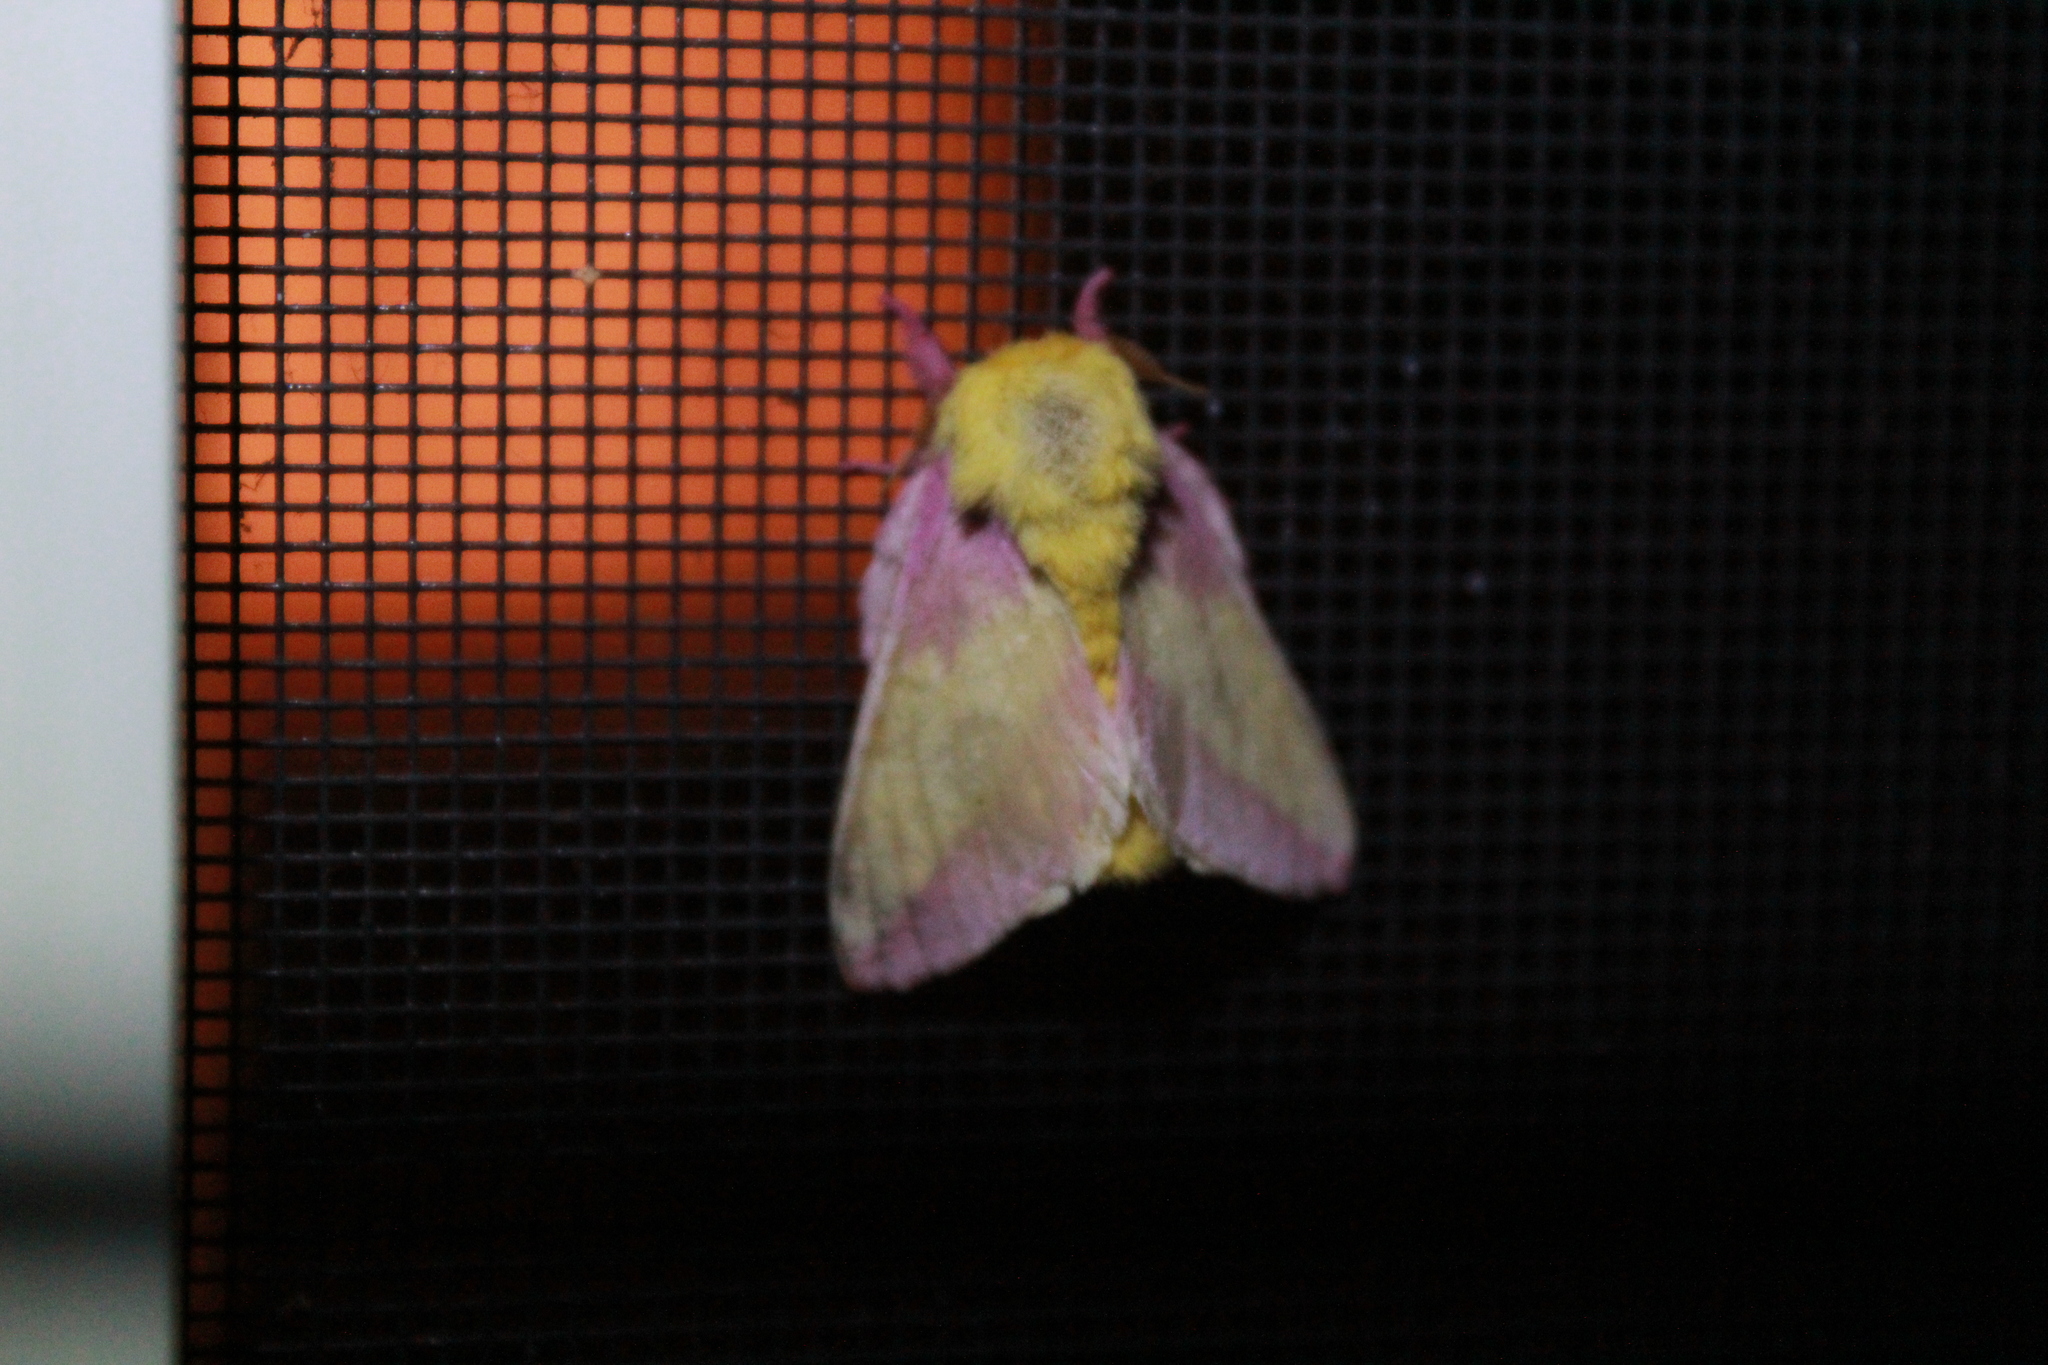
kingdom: Animalia
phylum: Arthropoda
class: Insecta
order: Lepidoptera
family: Saturniidae
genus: Dryocampa
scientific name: Dryocampa rubicunda
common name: Rosy maple moth
